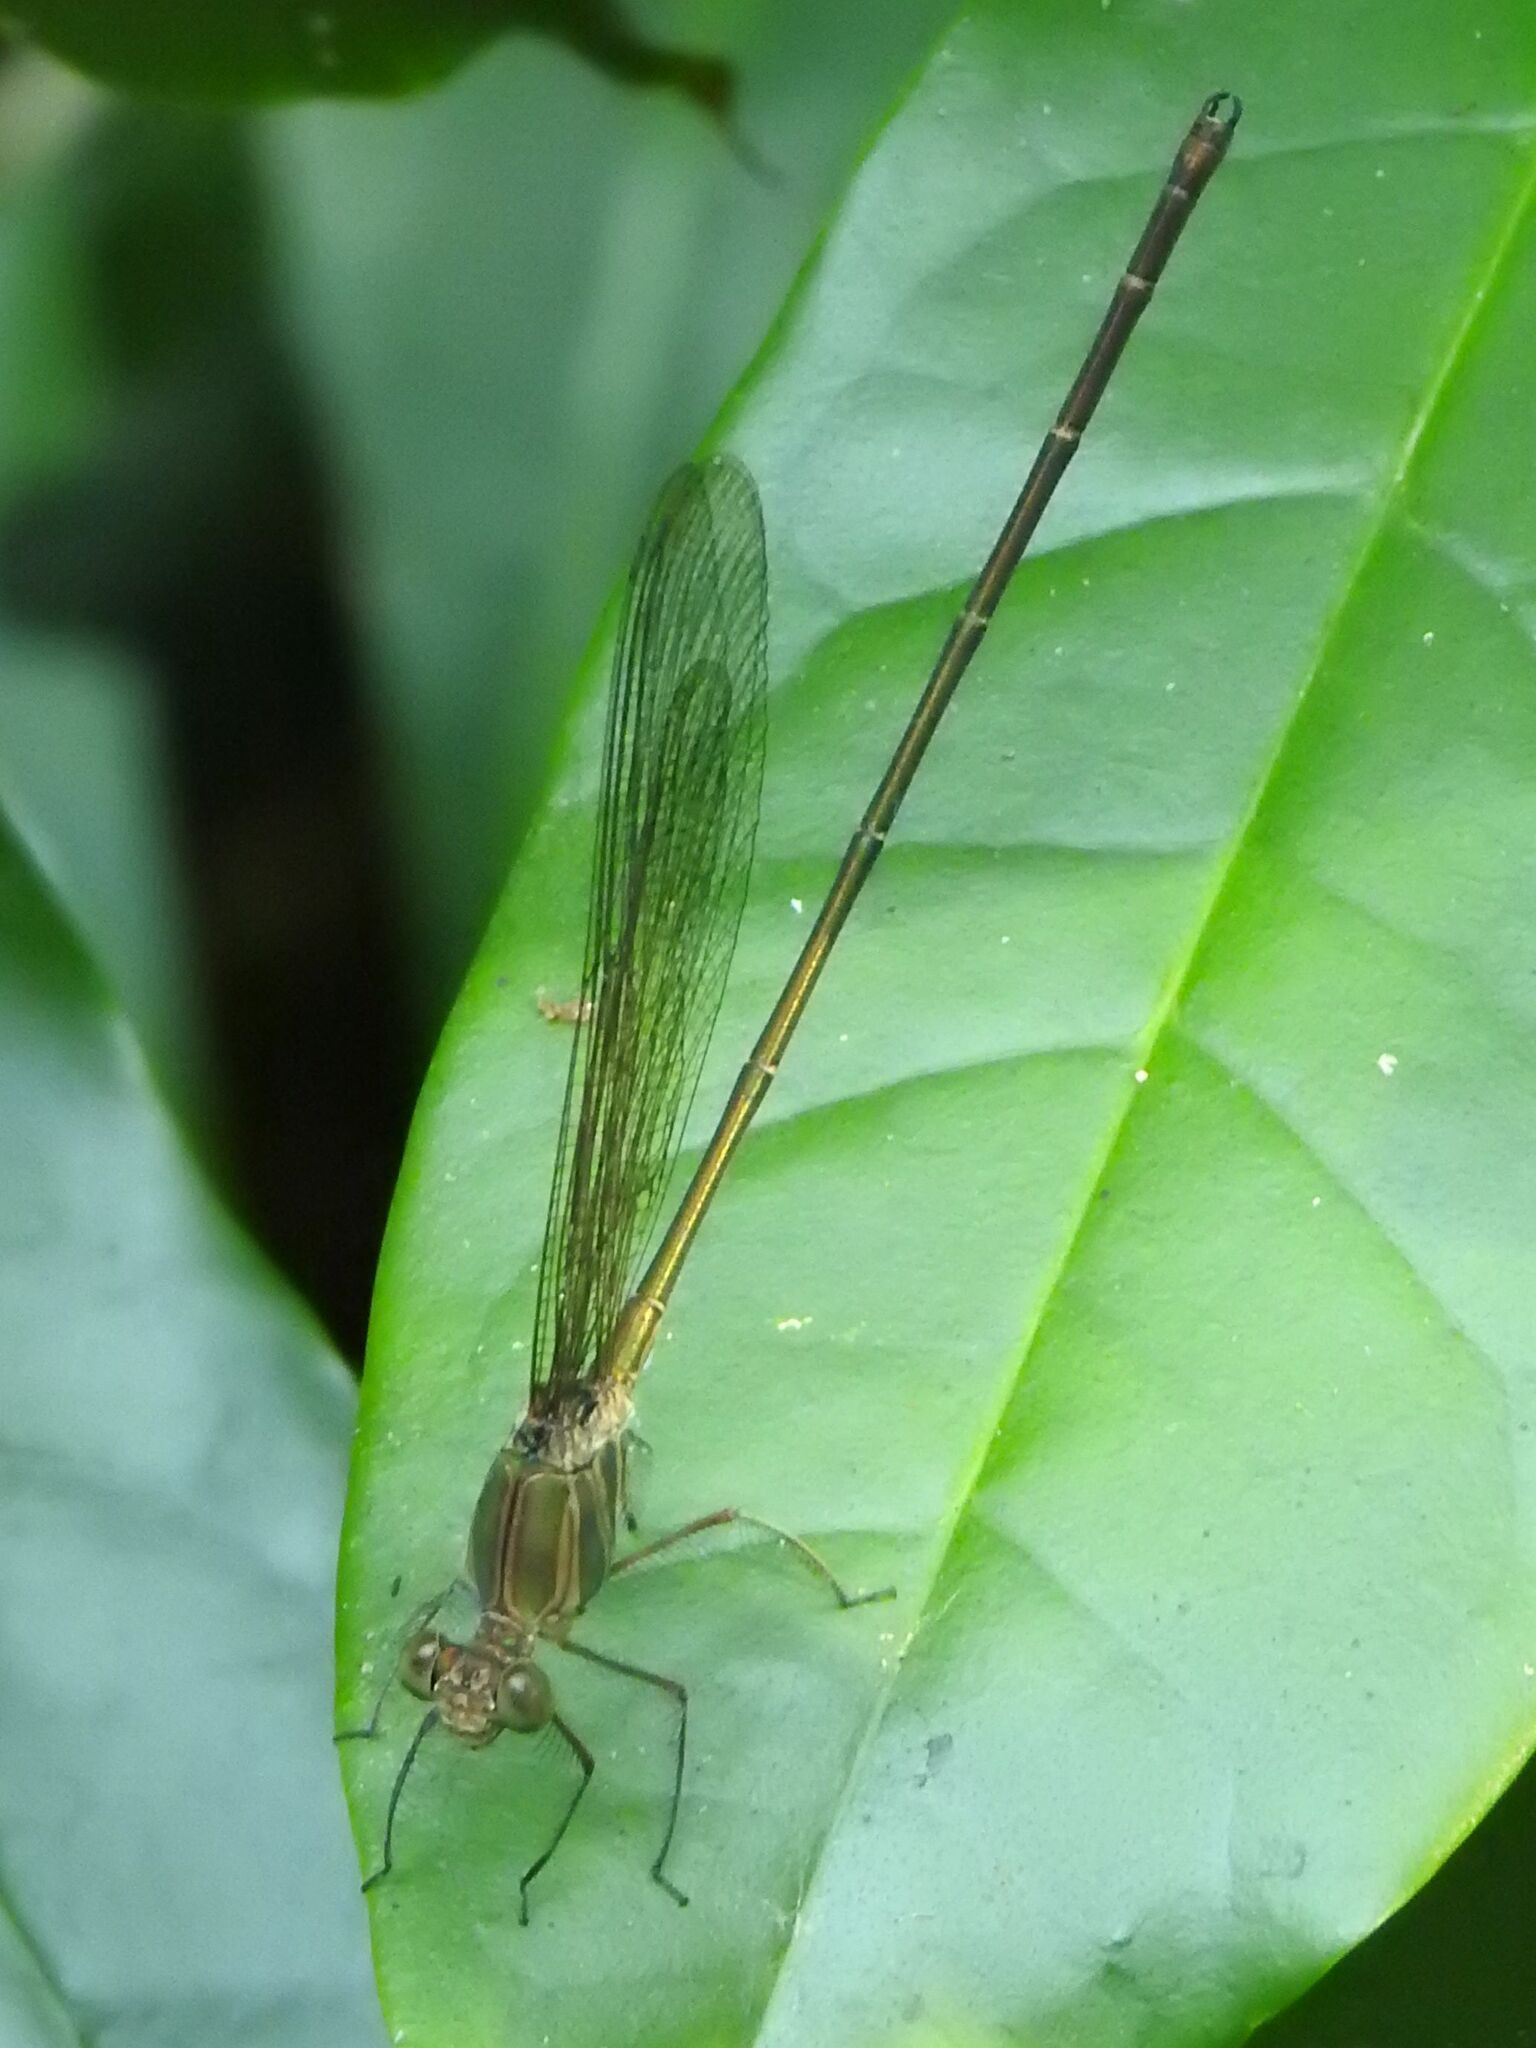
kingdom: Animalia
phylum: Arthropoda
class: Insecta
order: Odonata
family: Calopterygidae
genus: Phaon
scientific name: Phaon iridipennis
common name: Glistening demoiselle
